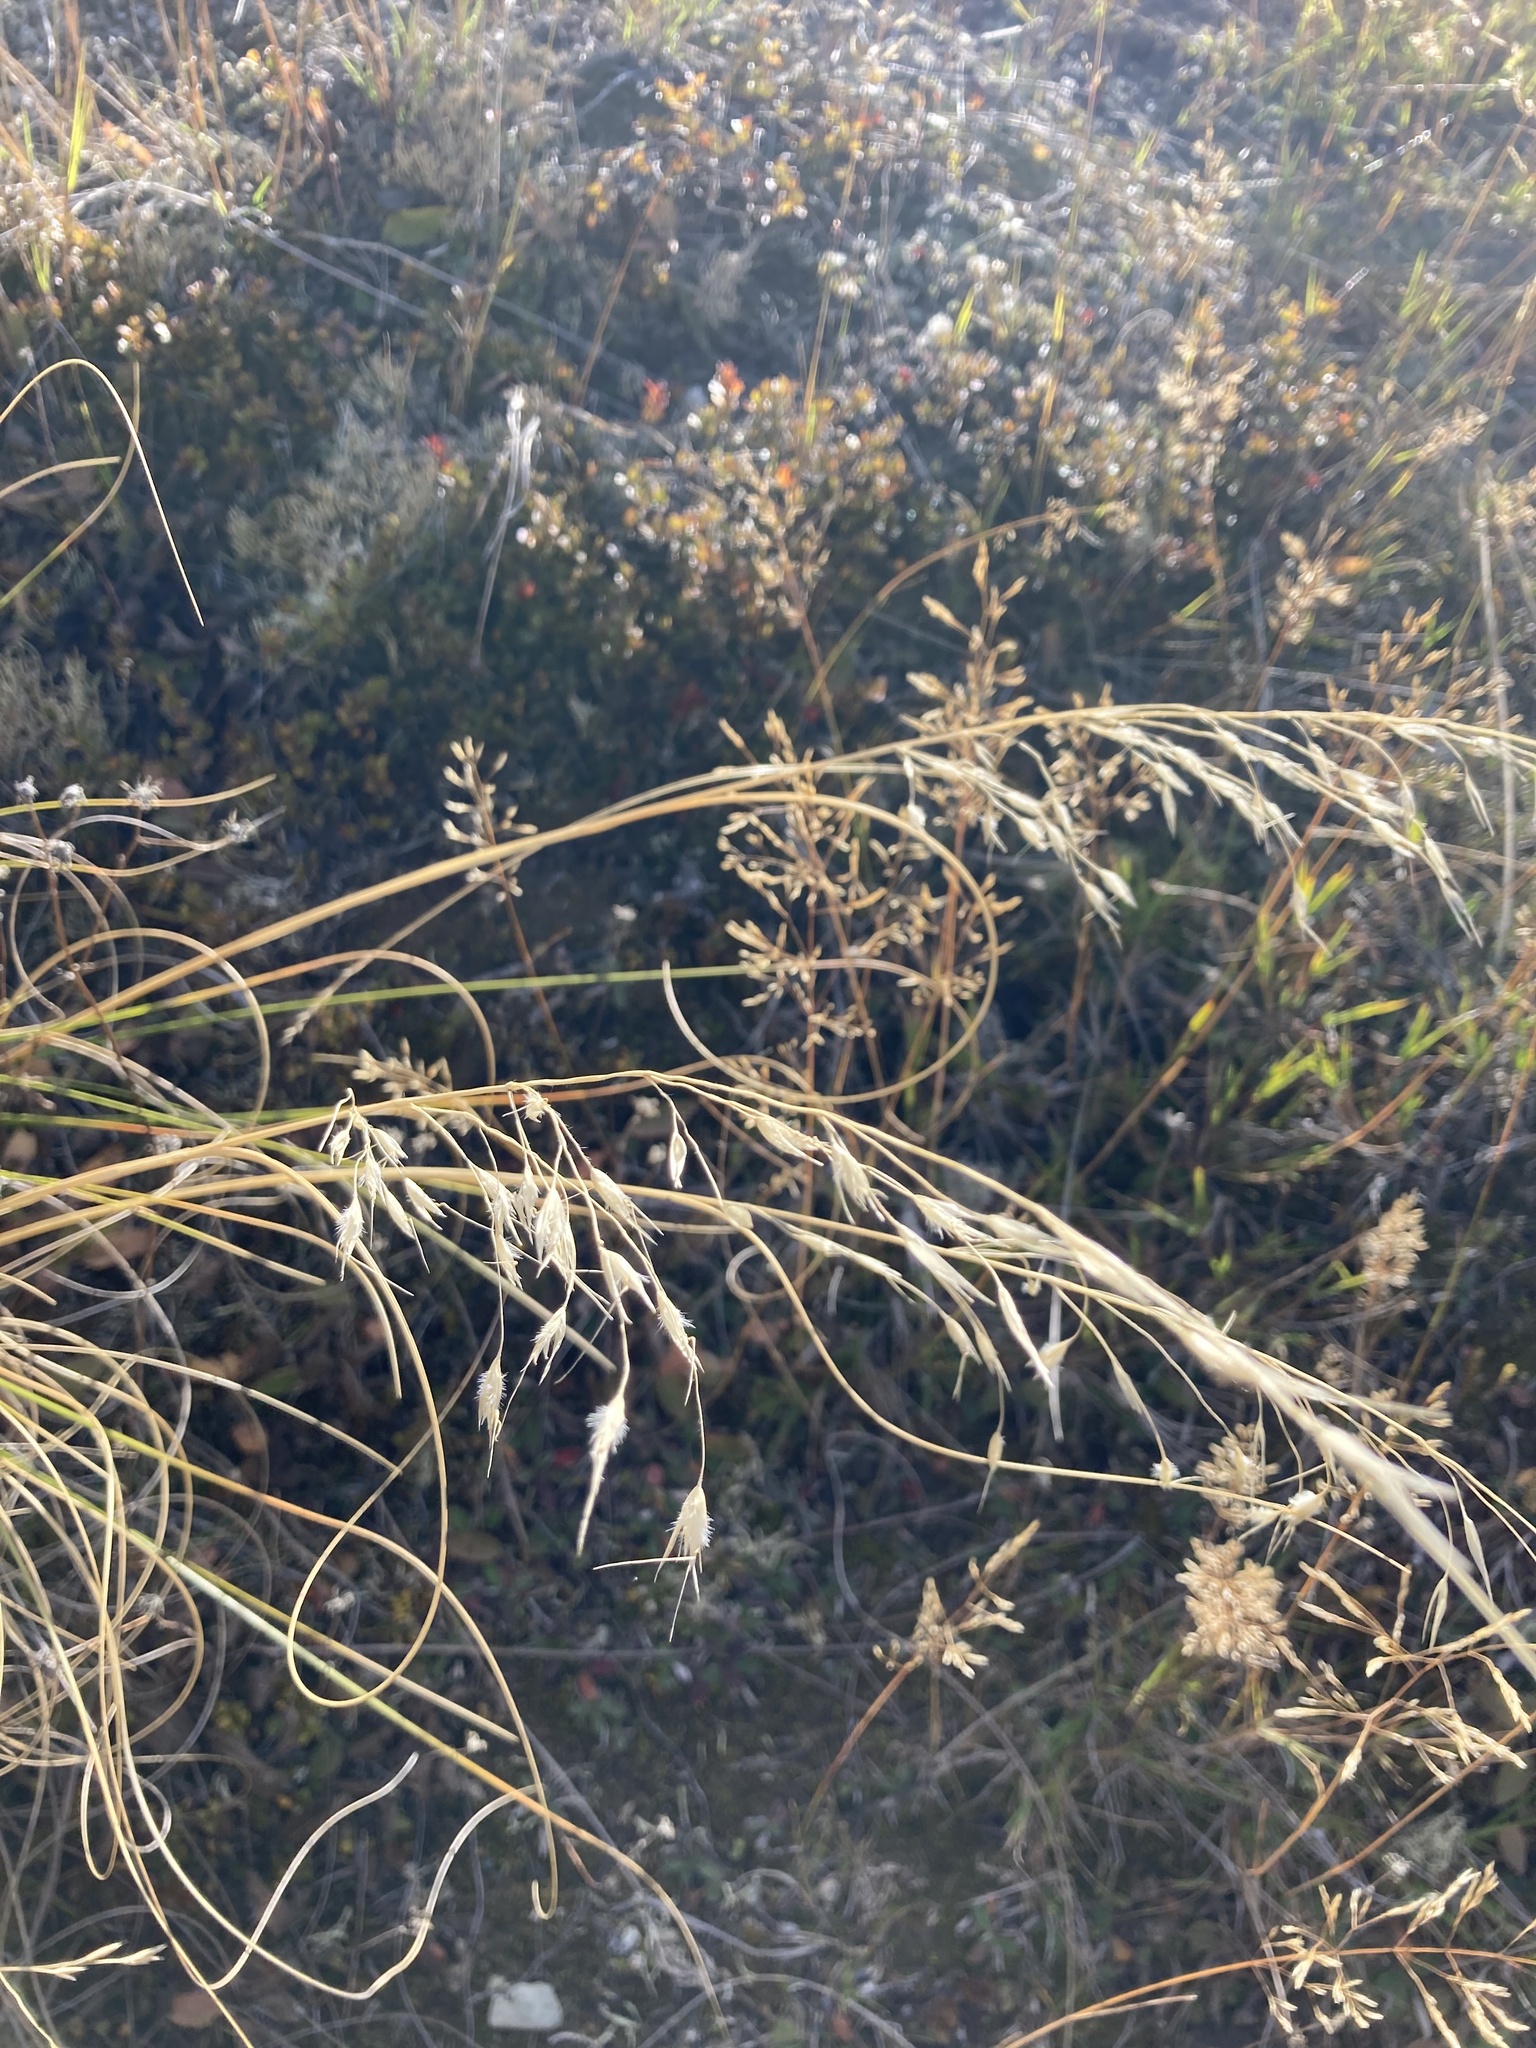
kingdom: Plantae
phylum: Tracheophyta
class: Liliopsida
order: Poales
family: Poaceae
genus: Chionochloa
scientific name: Chionochloa rigida
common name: Narrow leaved snow tussock
